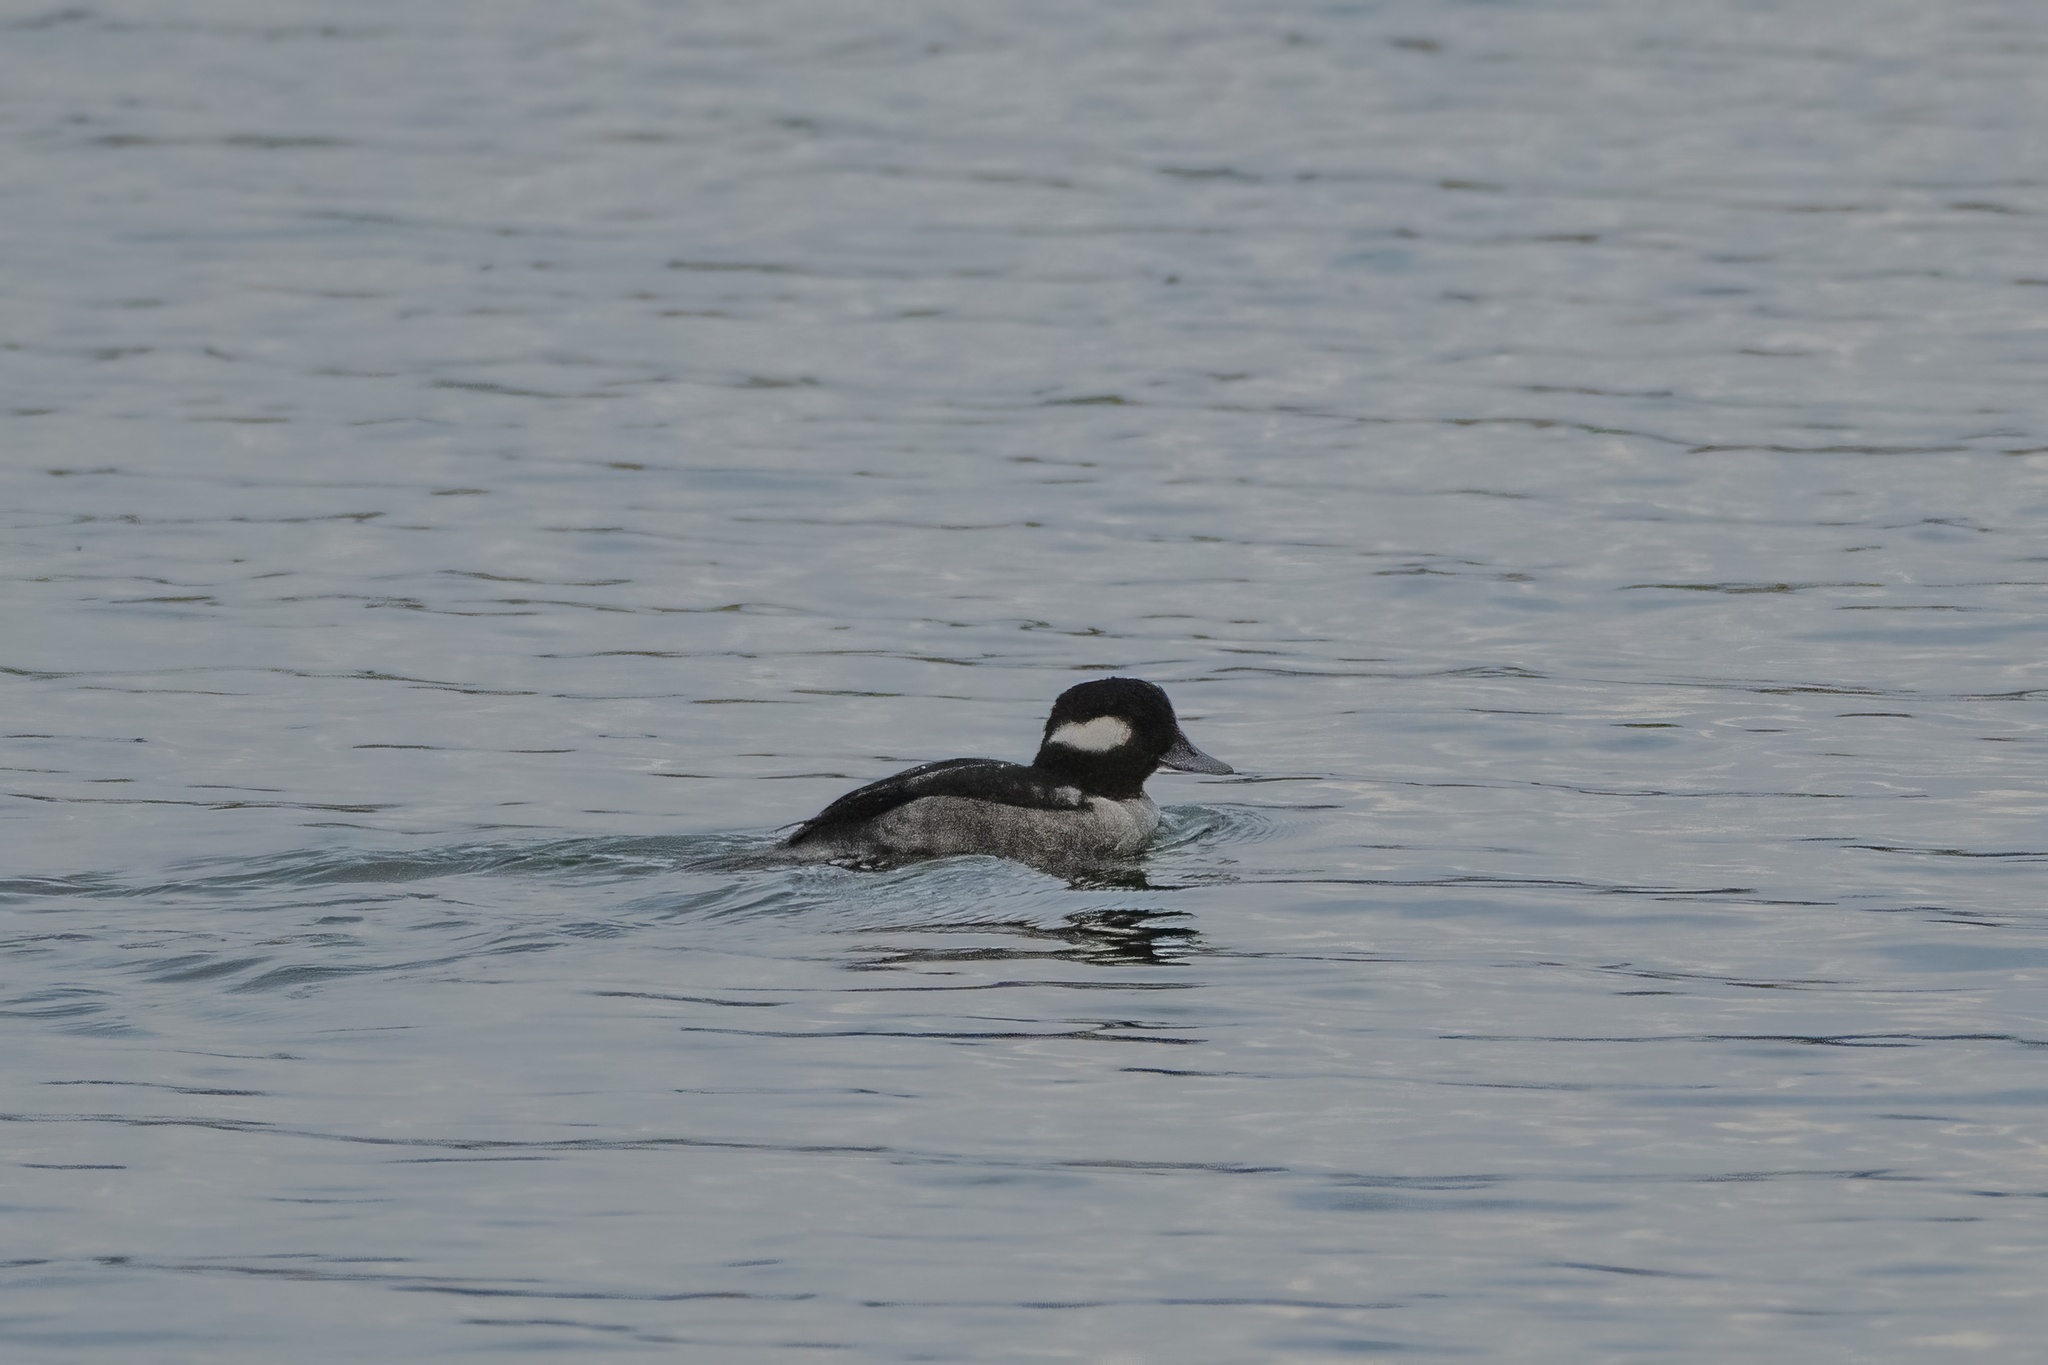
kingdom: Animalia
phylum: Chordata
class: Aves
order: Anseriformes
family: Anatidae
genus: Bucephala
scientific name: Bucephala albeola
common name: Bufflehead
